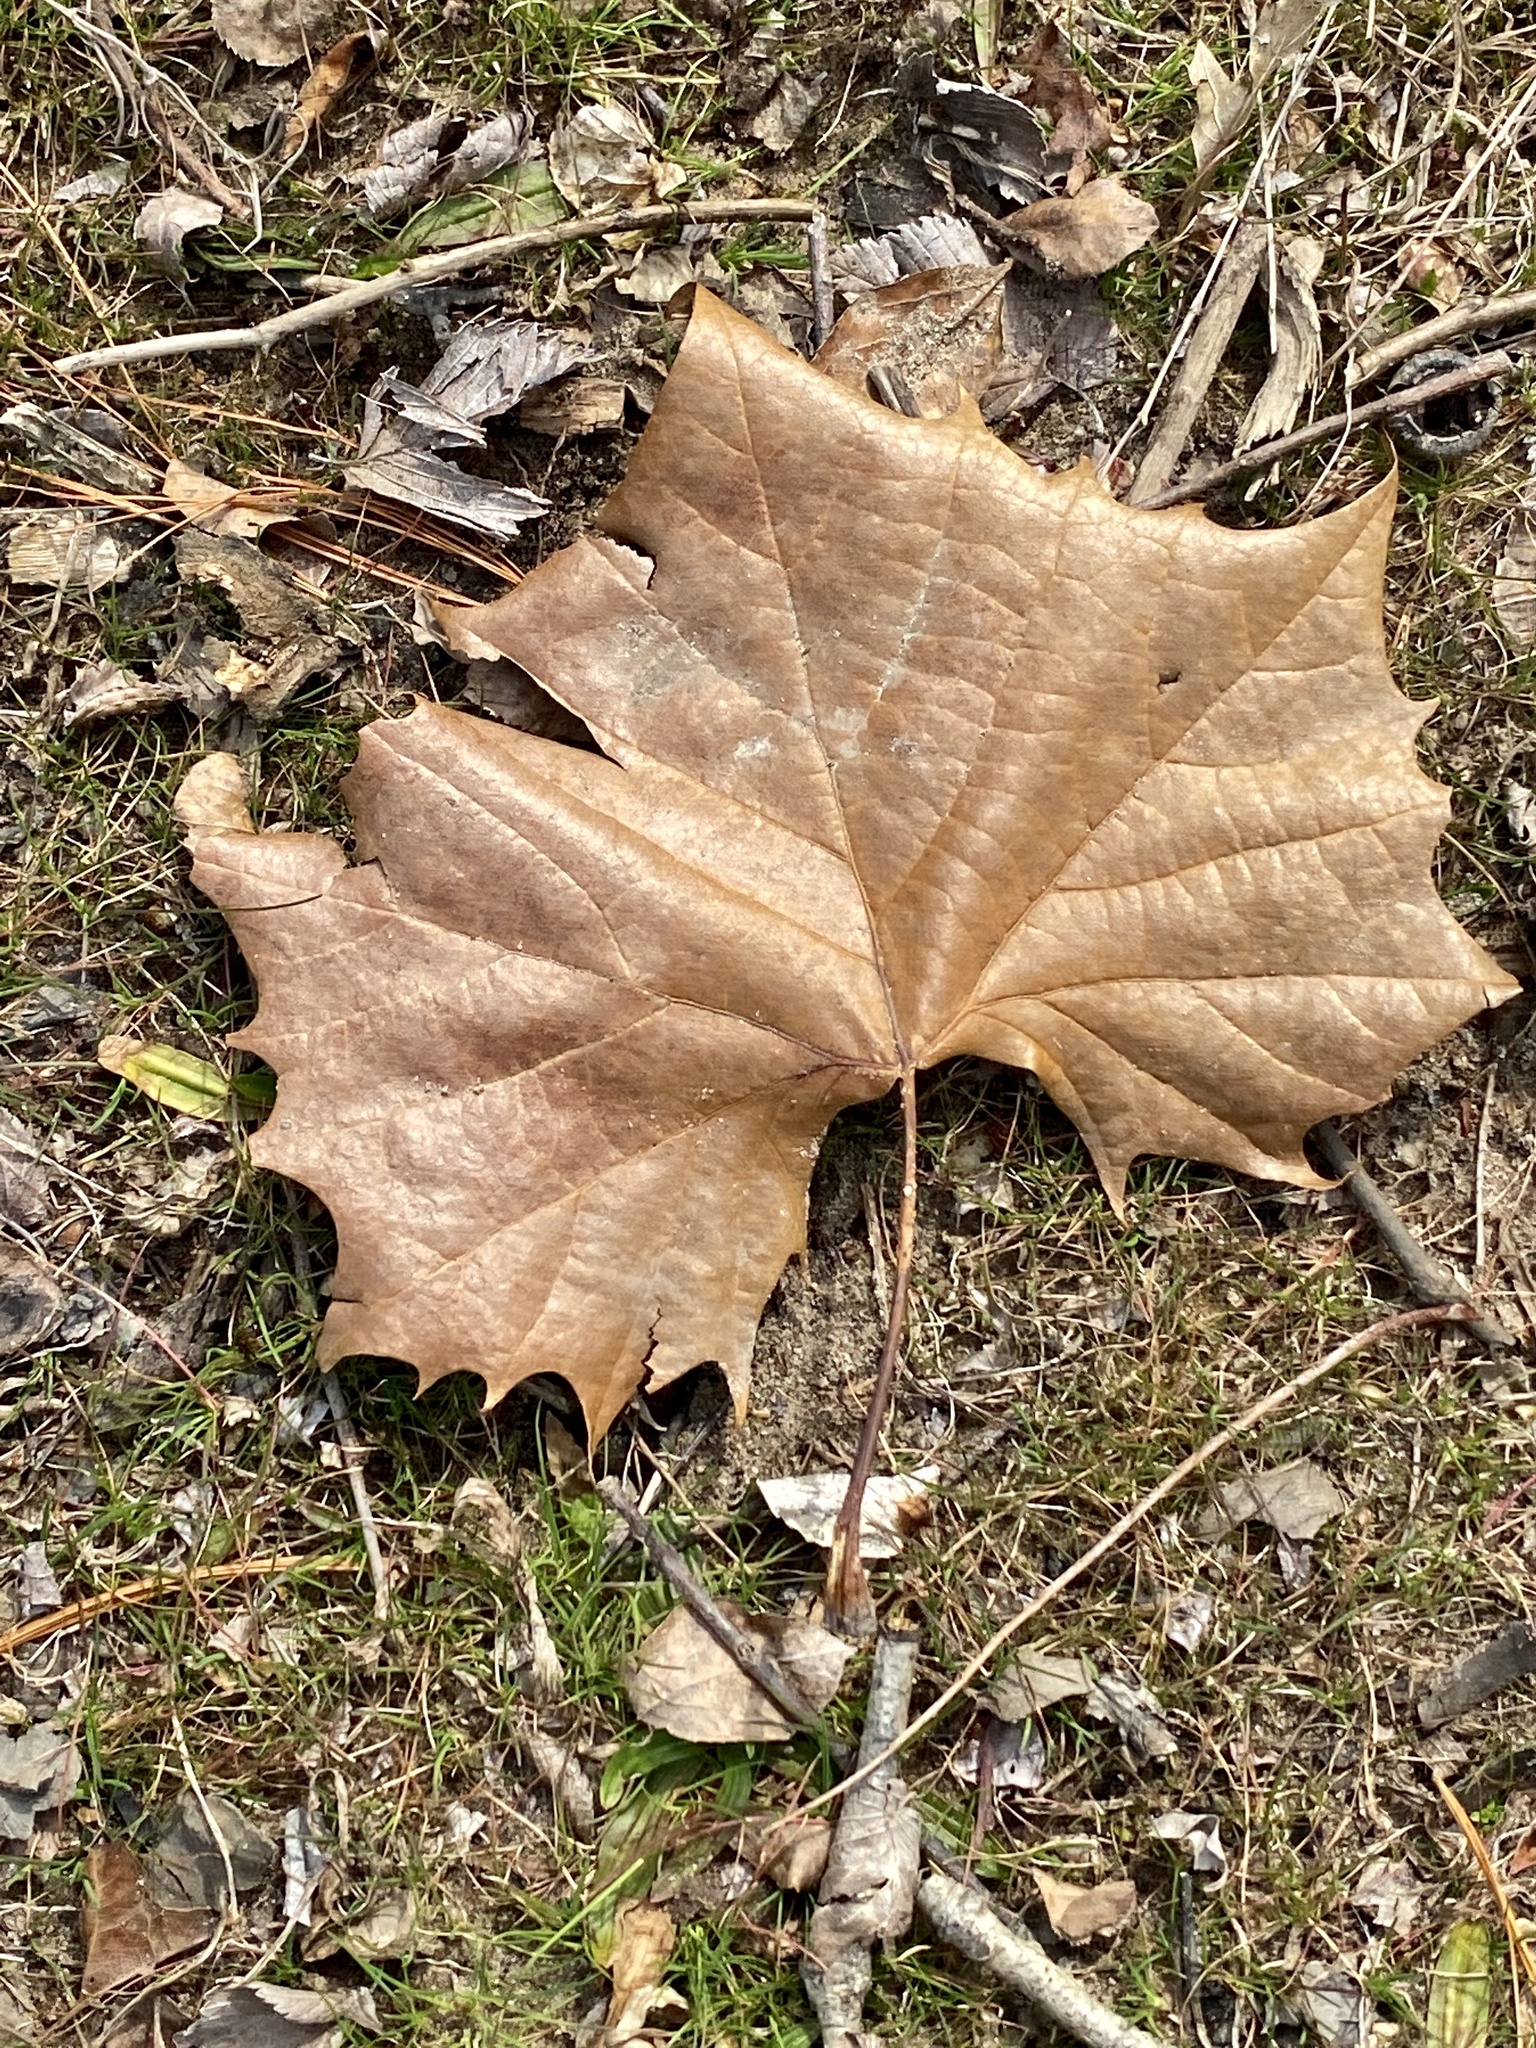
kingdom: Plantae
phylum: Tracheophyta
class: Magnoliopsida
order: Proteales
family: Platanaceae
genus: Platanus
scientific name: Platanus occidentalis
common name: American sycamore
